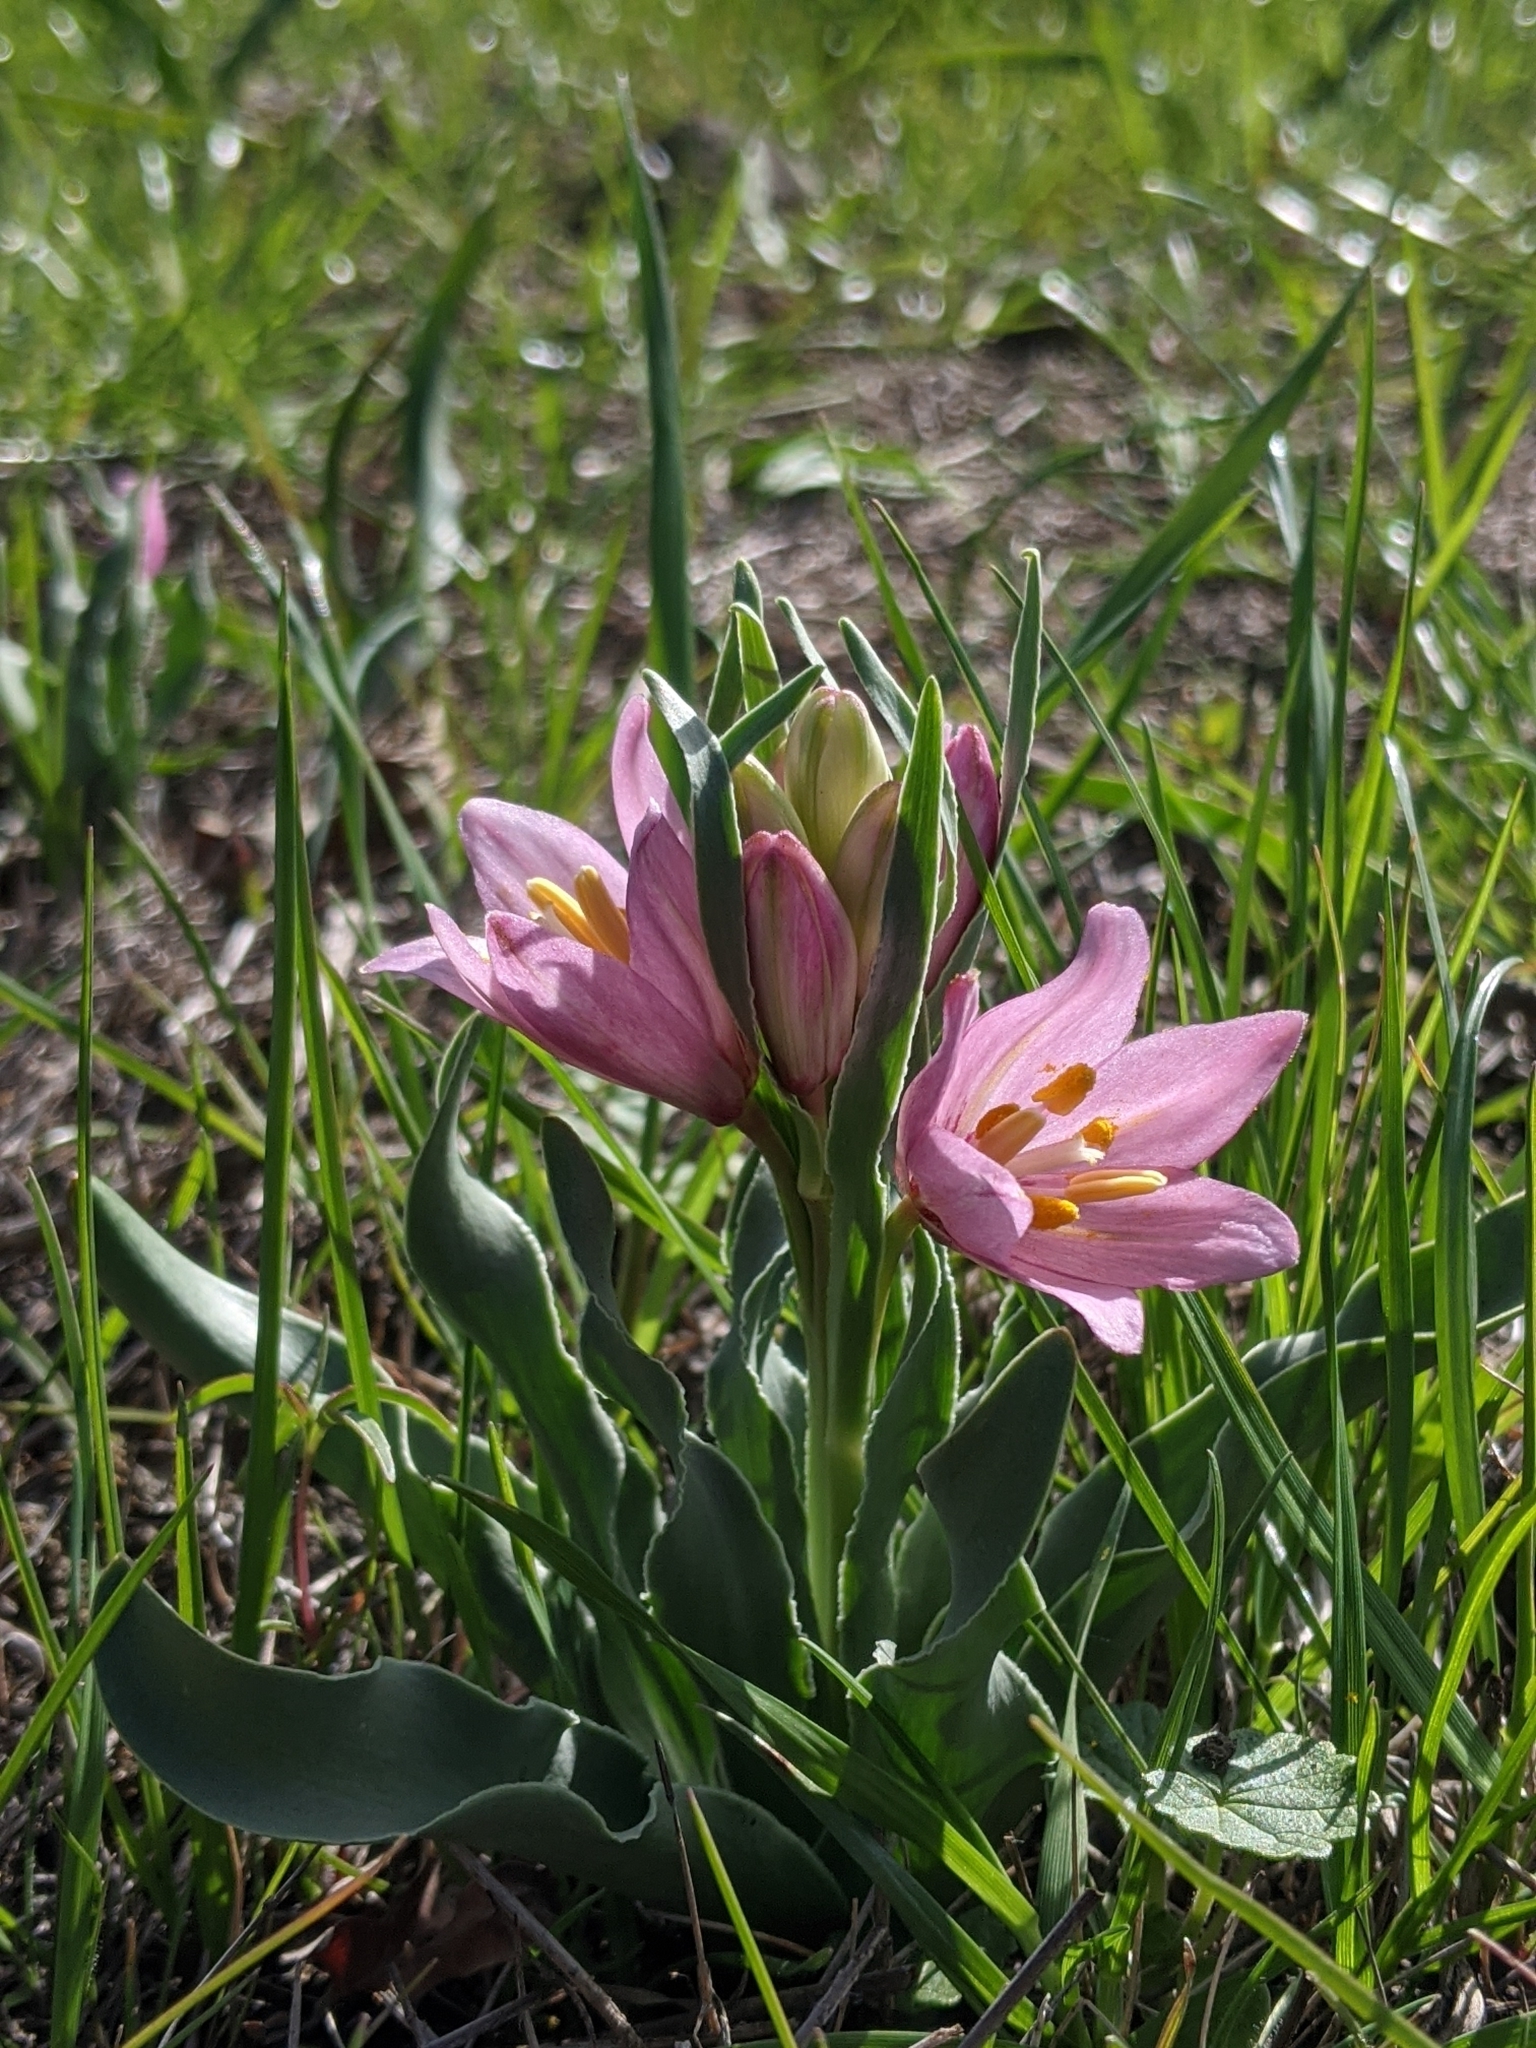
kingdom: Plantae
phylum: Tracheophyta
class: Liliopsida
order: Liliales
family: Liliaceae
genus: Fritillaria
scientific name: Fritillaria pluriflora
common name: Adobe-lily
